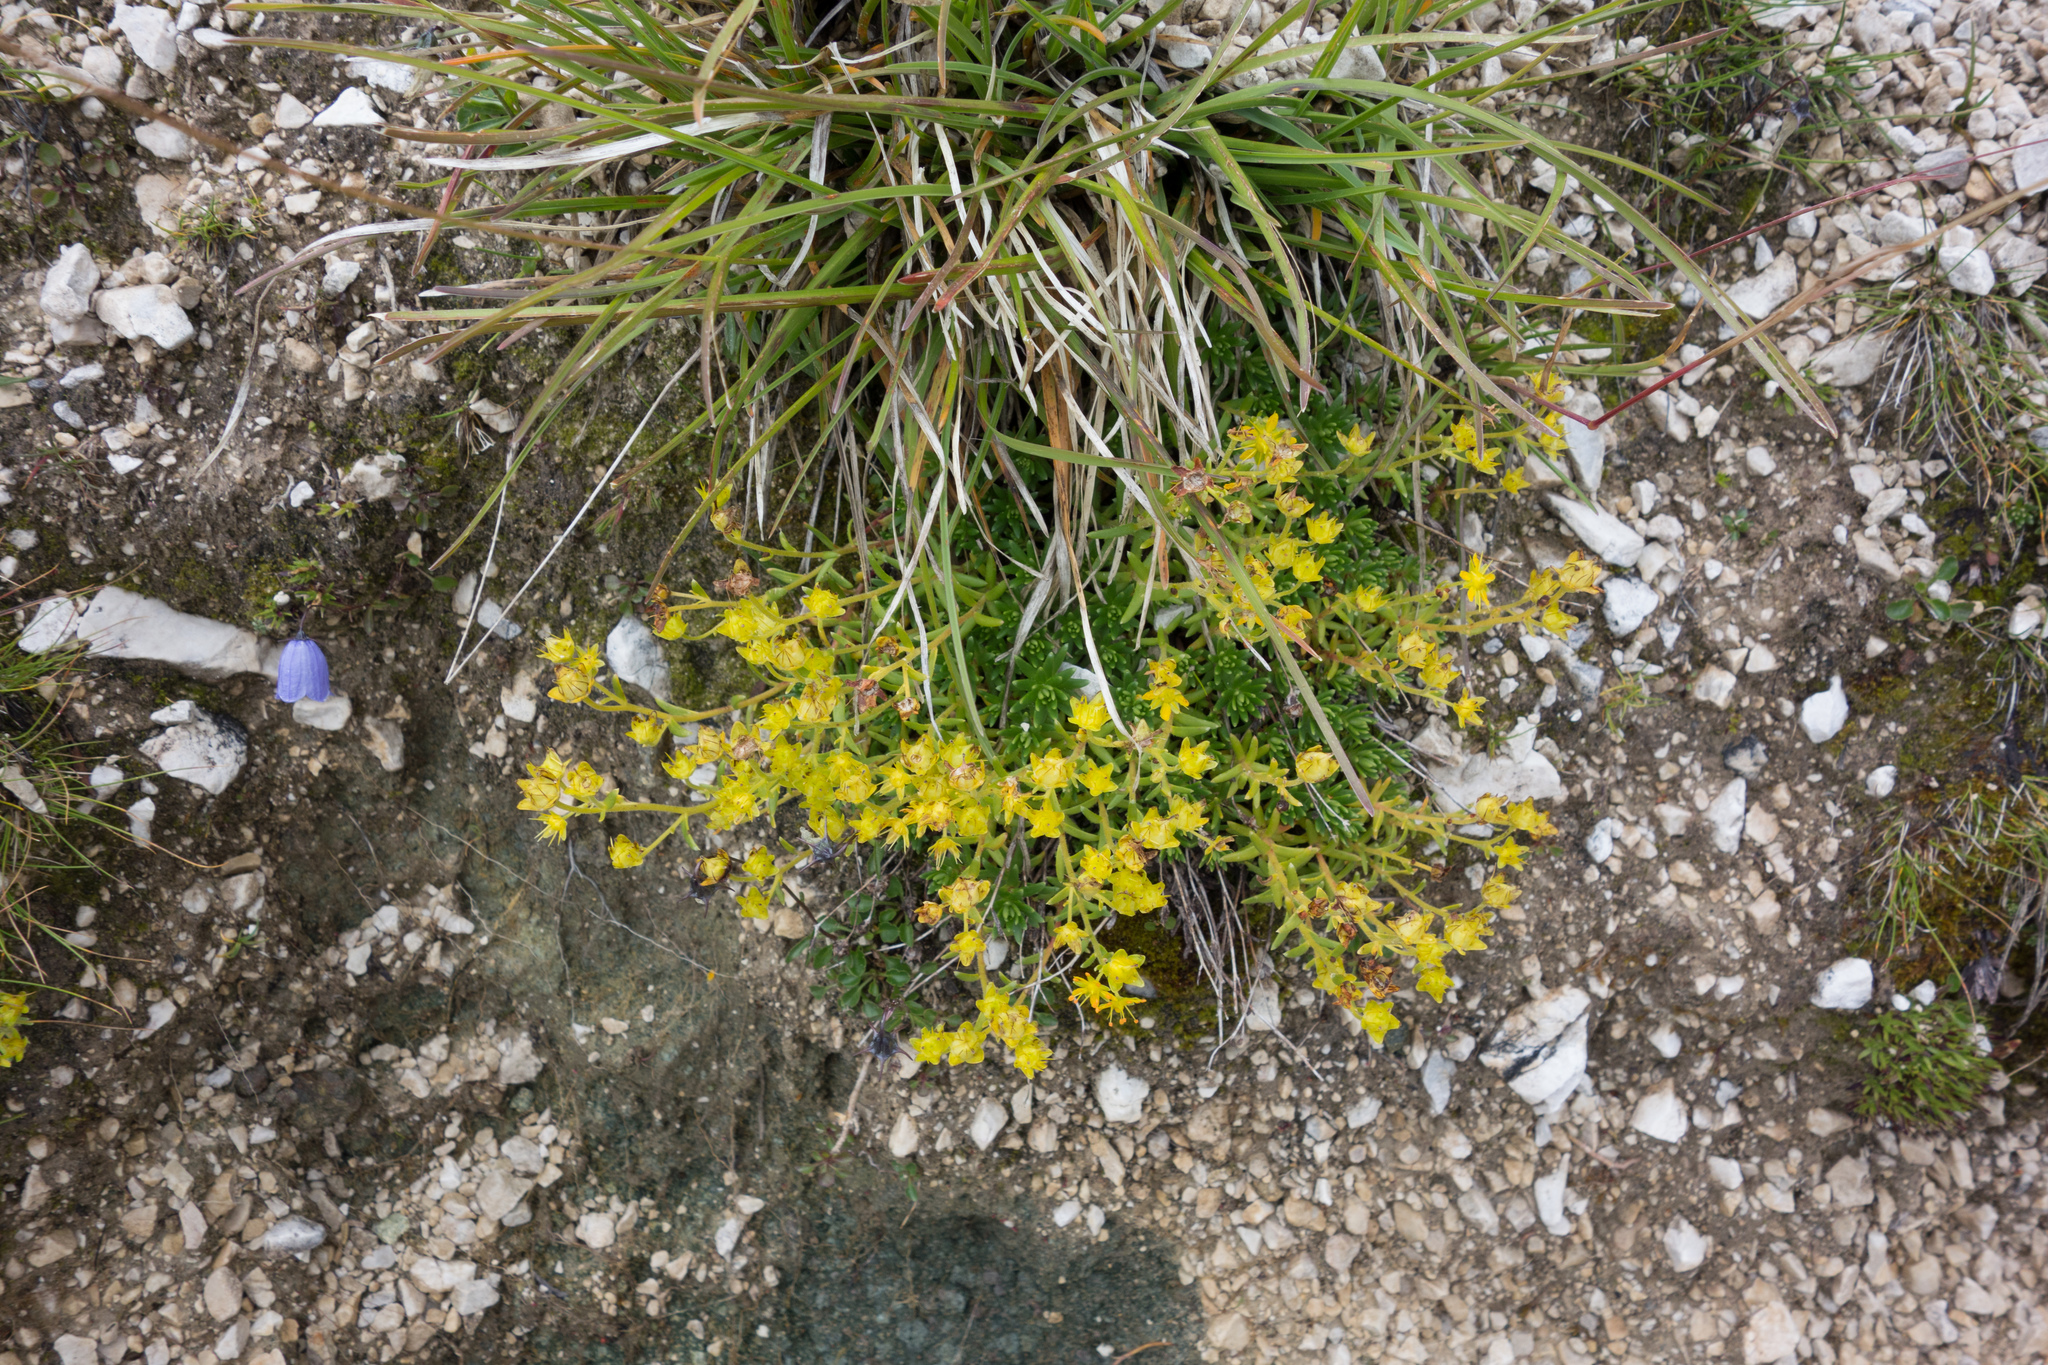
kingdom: Plantae
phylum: Tracheophyta
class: Magnoliopsida
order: Saxifragales
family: Saxifragaceae
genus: Saxifraga
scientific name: Saxifraga aizoides
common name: Yellow mountain saxifrage
